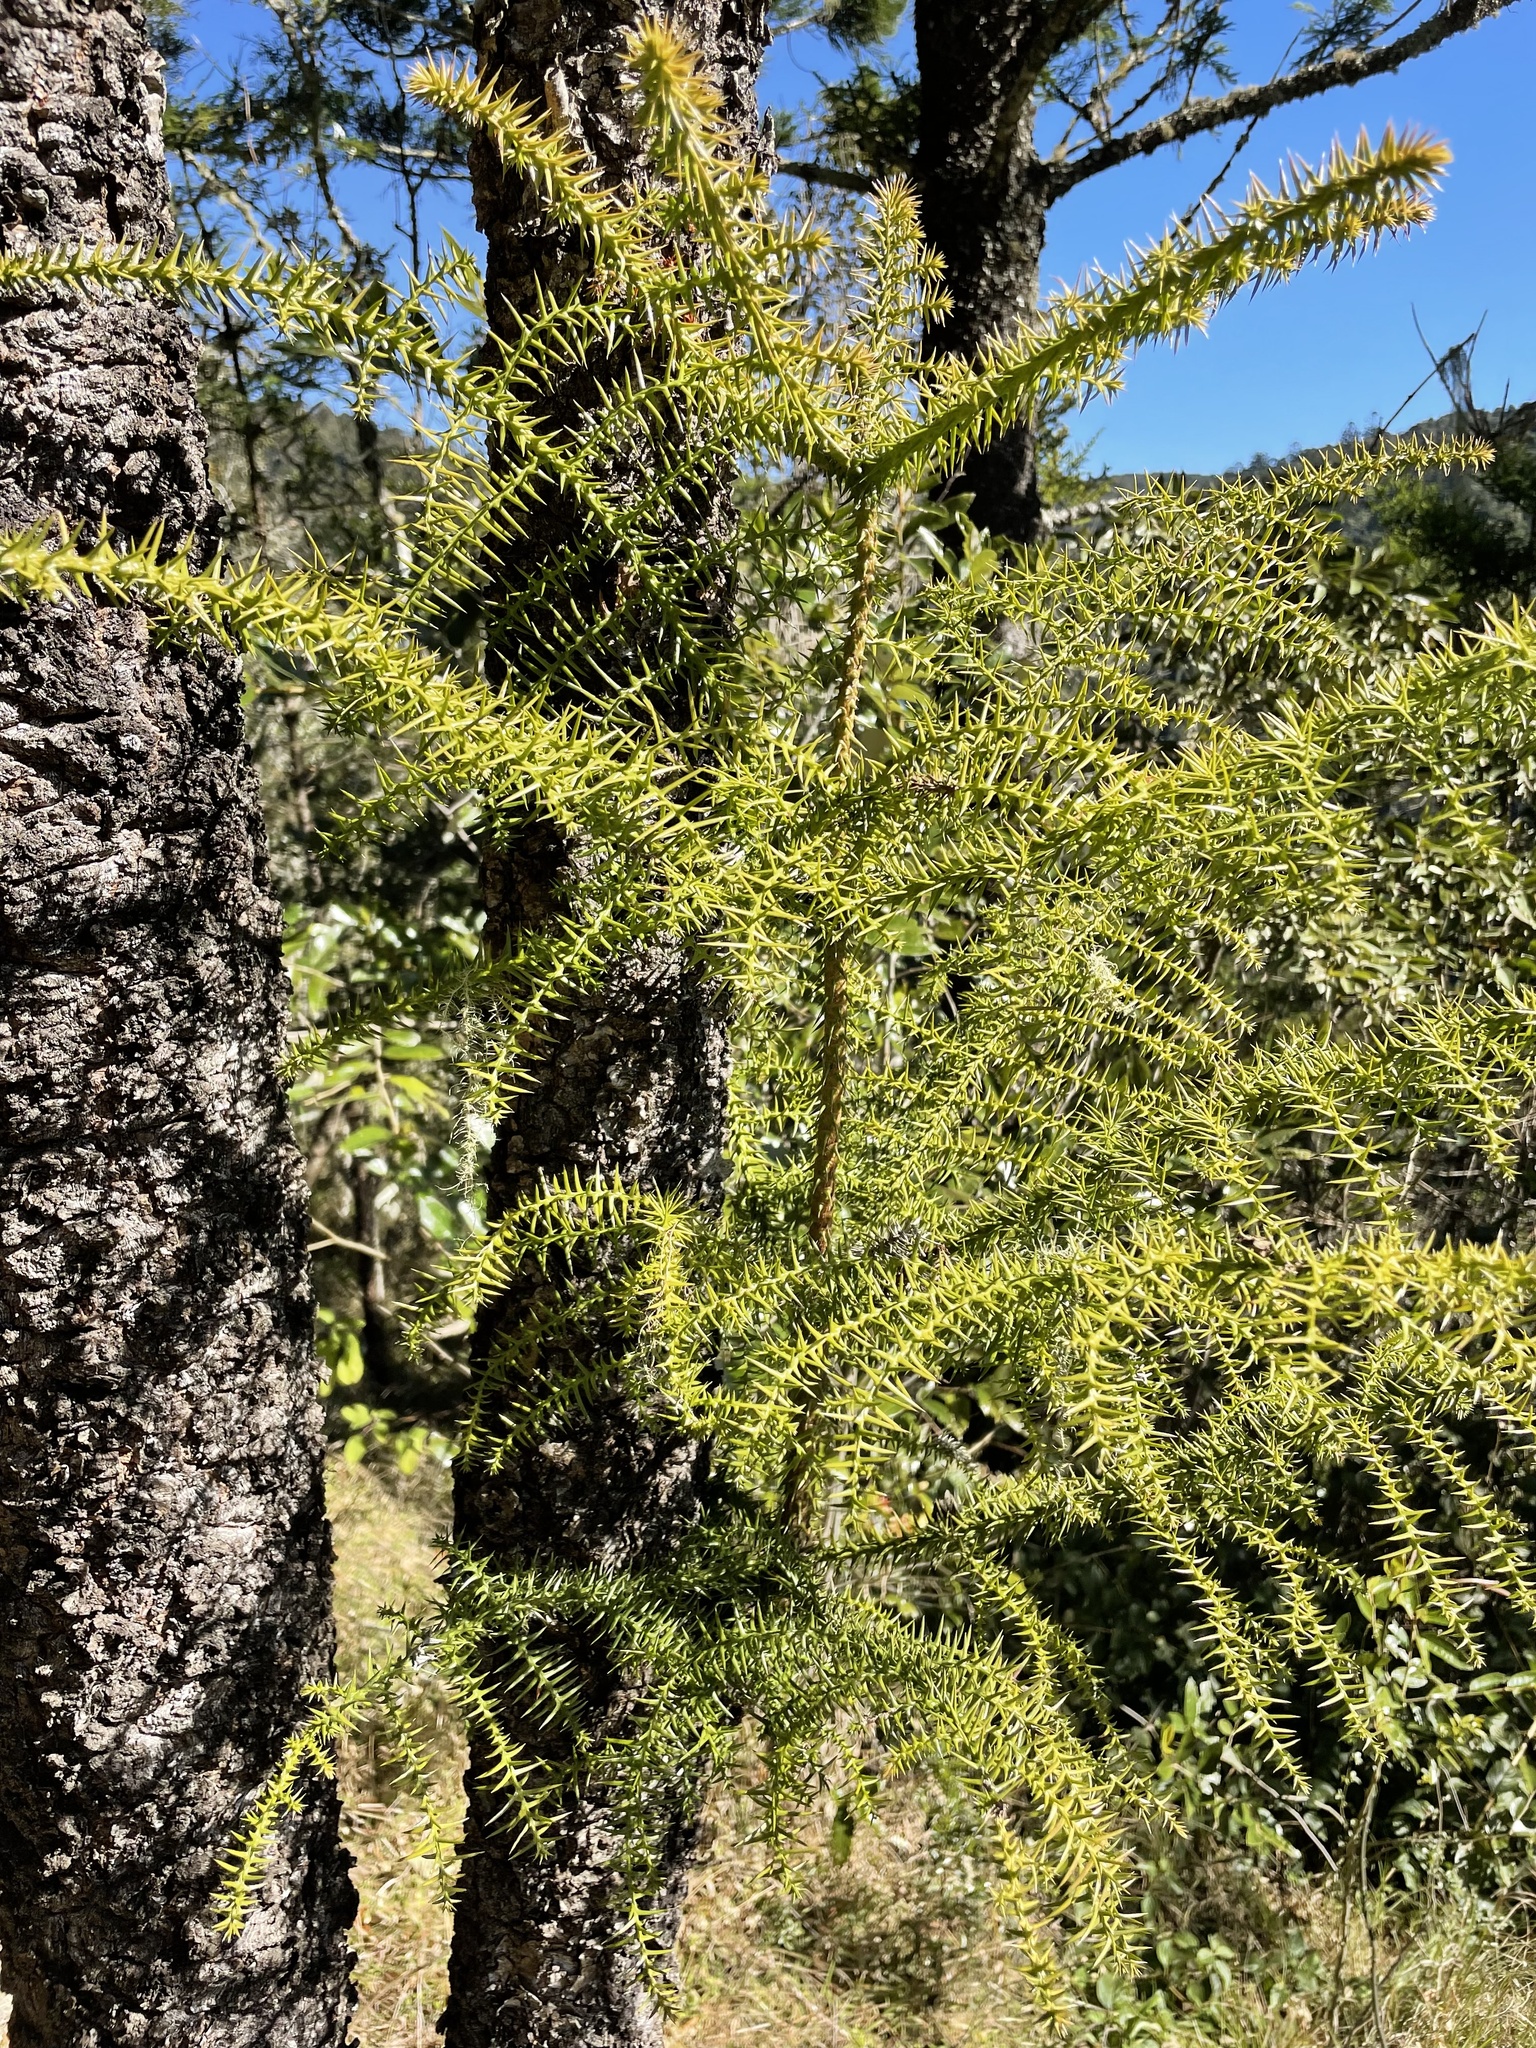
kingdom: Plantae
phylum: Tracheophyta
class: Pinopsida
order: Pinales
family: Araucariaceae
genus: Araucaria
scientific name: Araucaria cunninghamii
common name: Colonial pine
